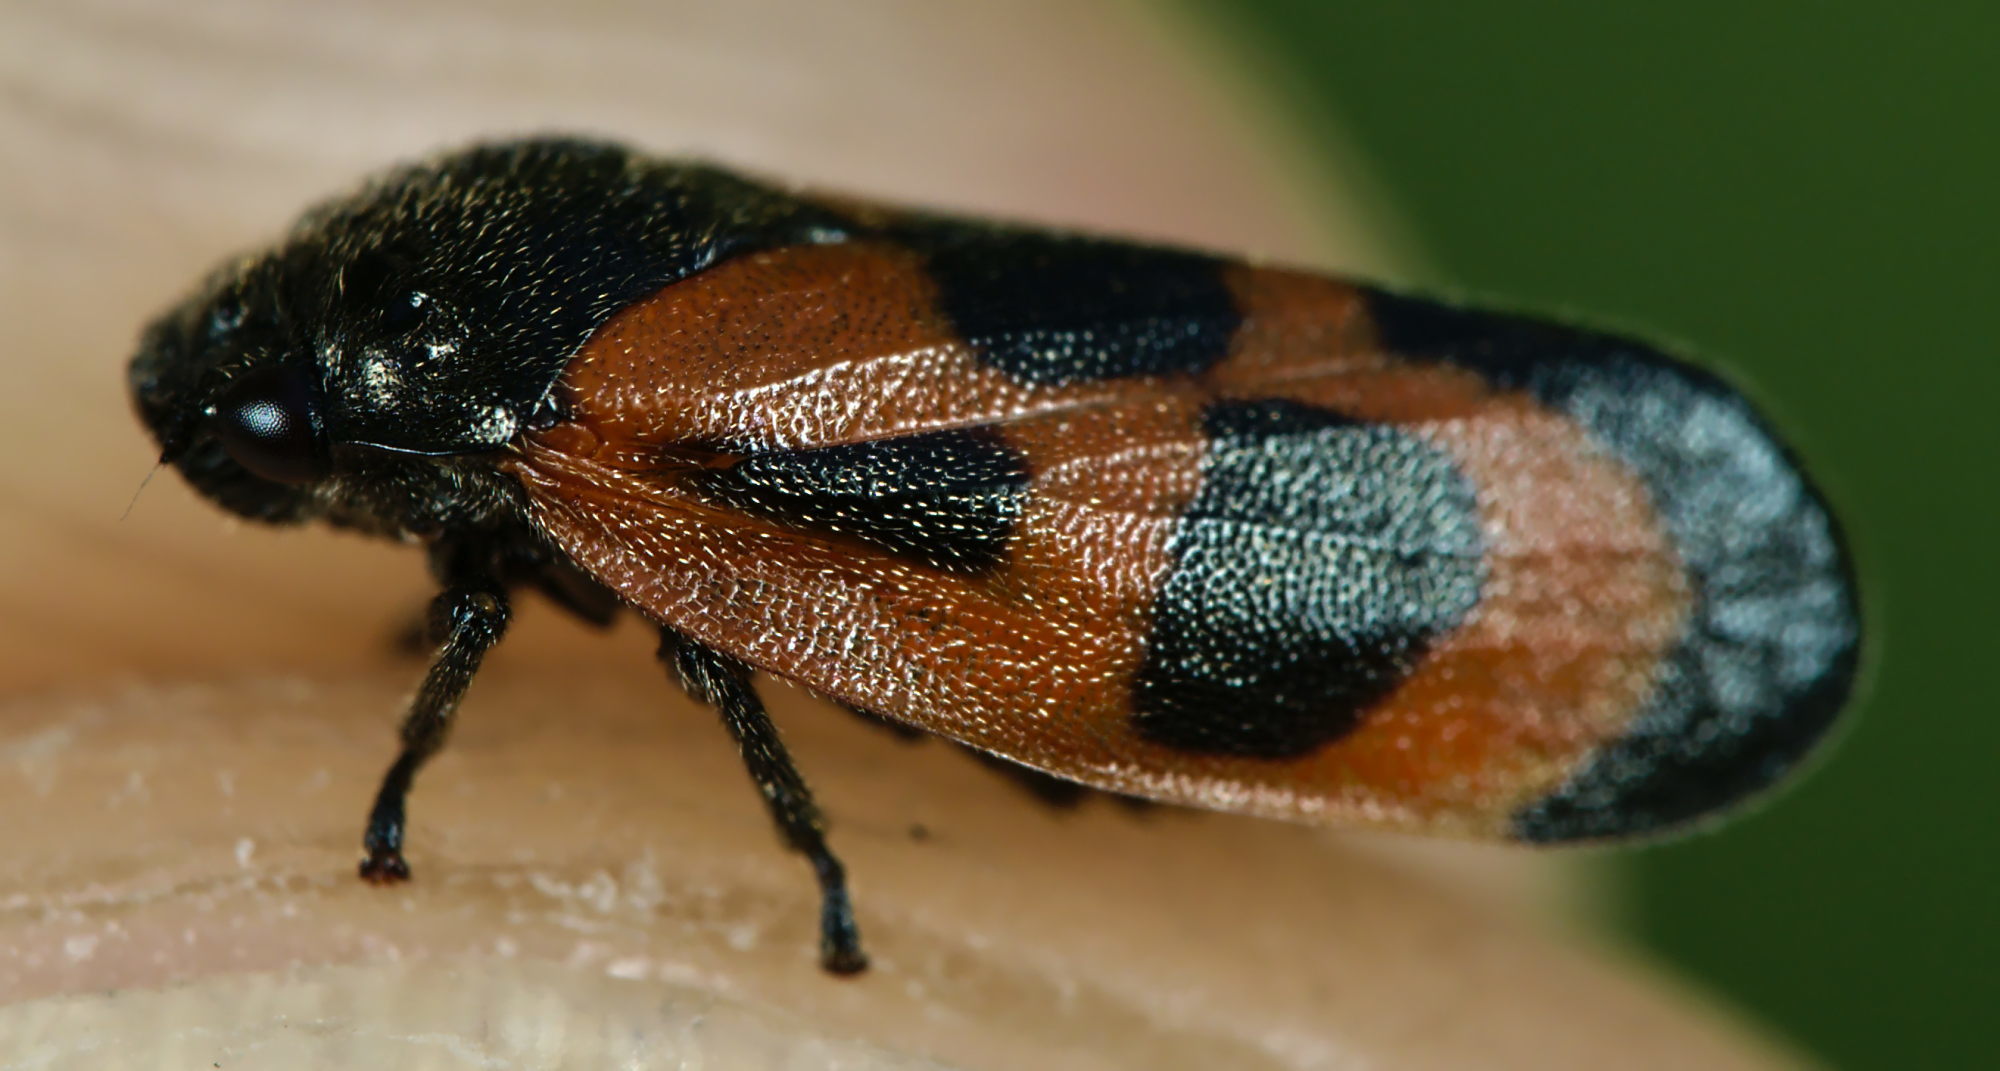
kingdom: Animalia
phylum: Arthropoda
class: Insecta
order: Hemiptera
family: Cercopidae
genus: Haematoloma
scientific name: Haematoloma dorsata
